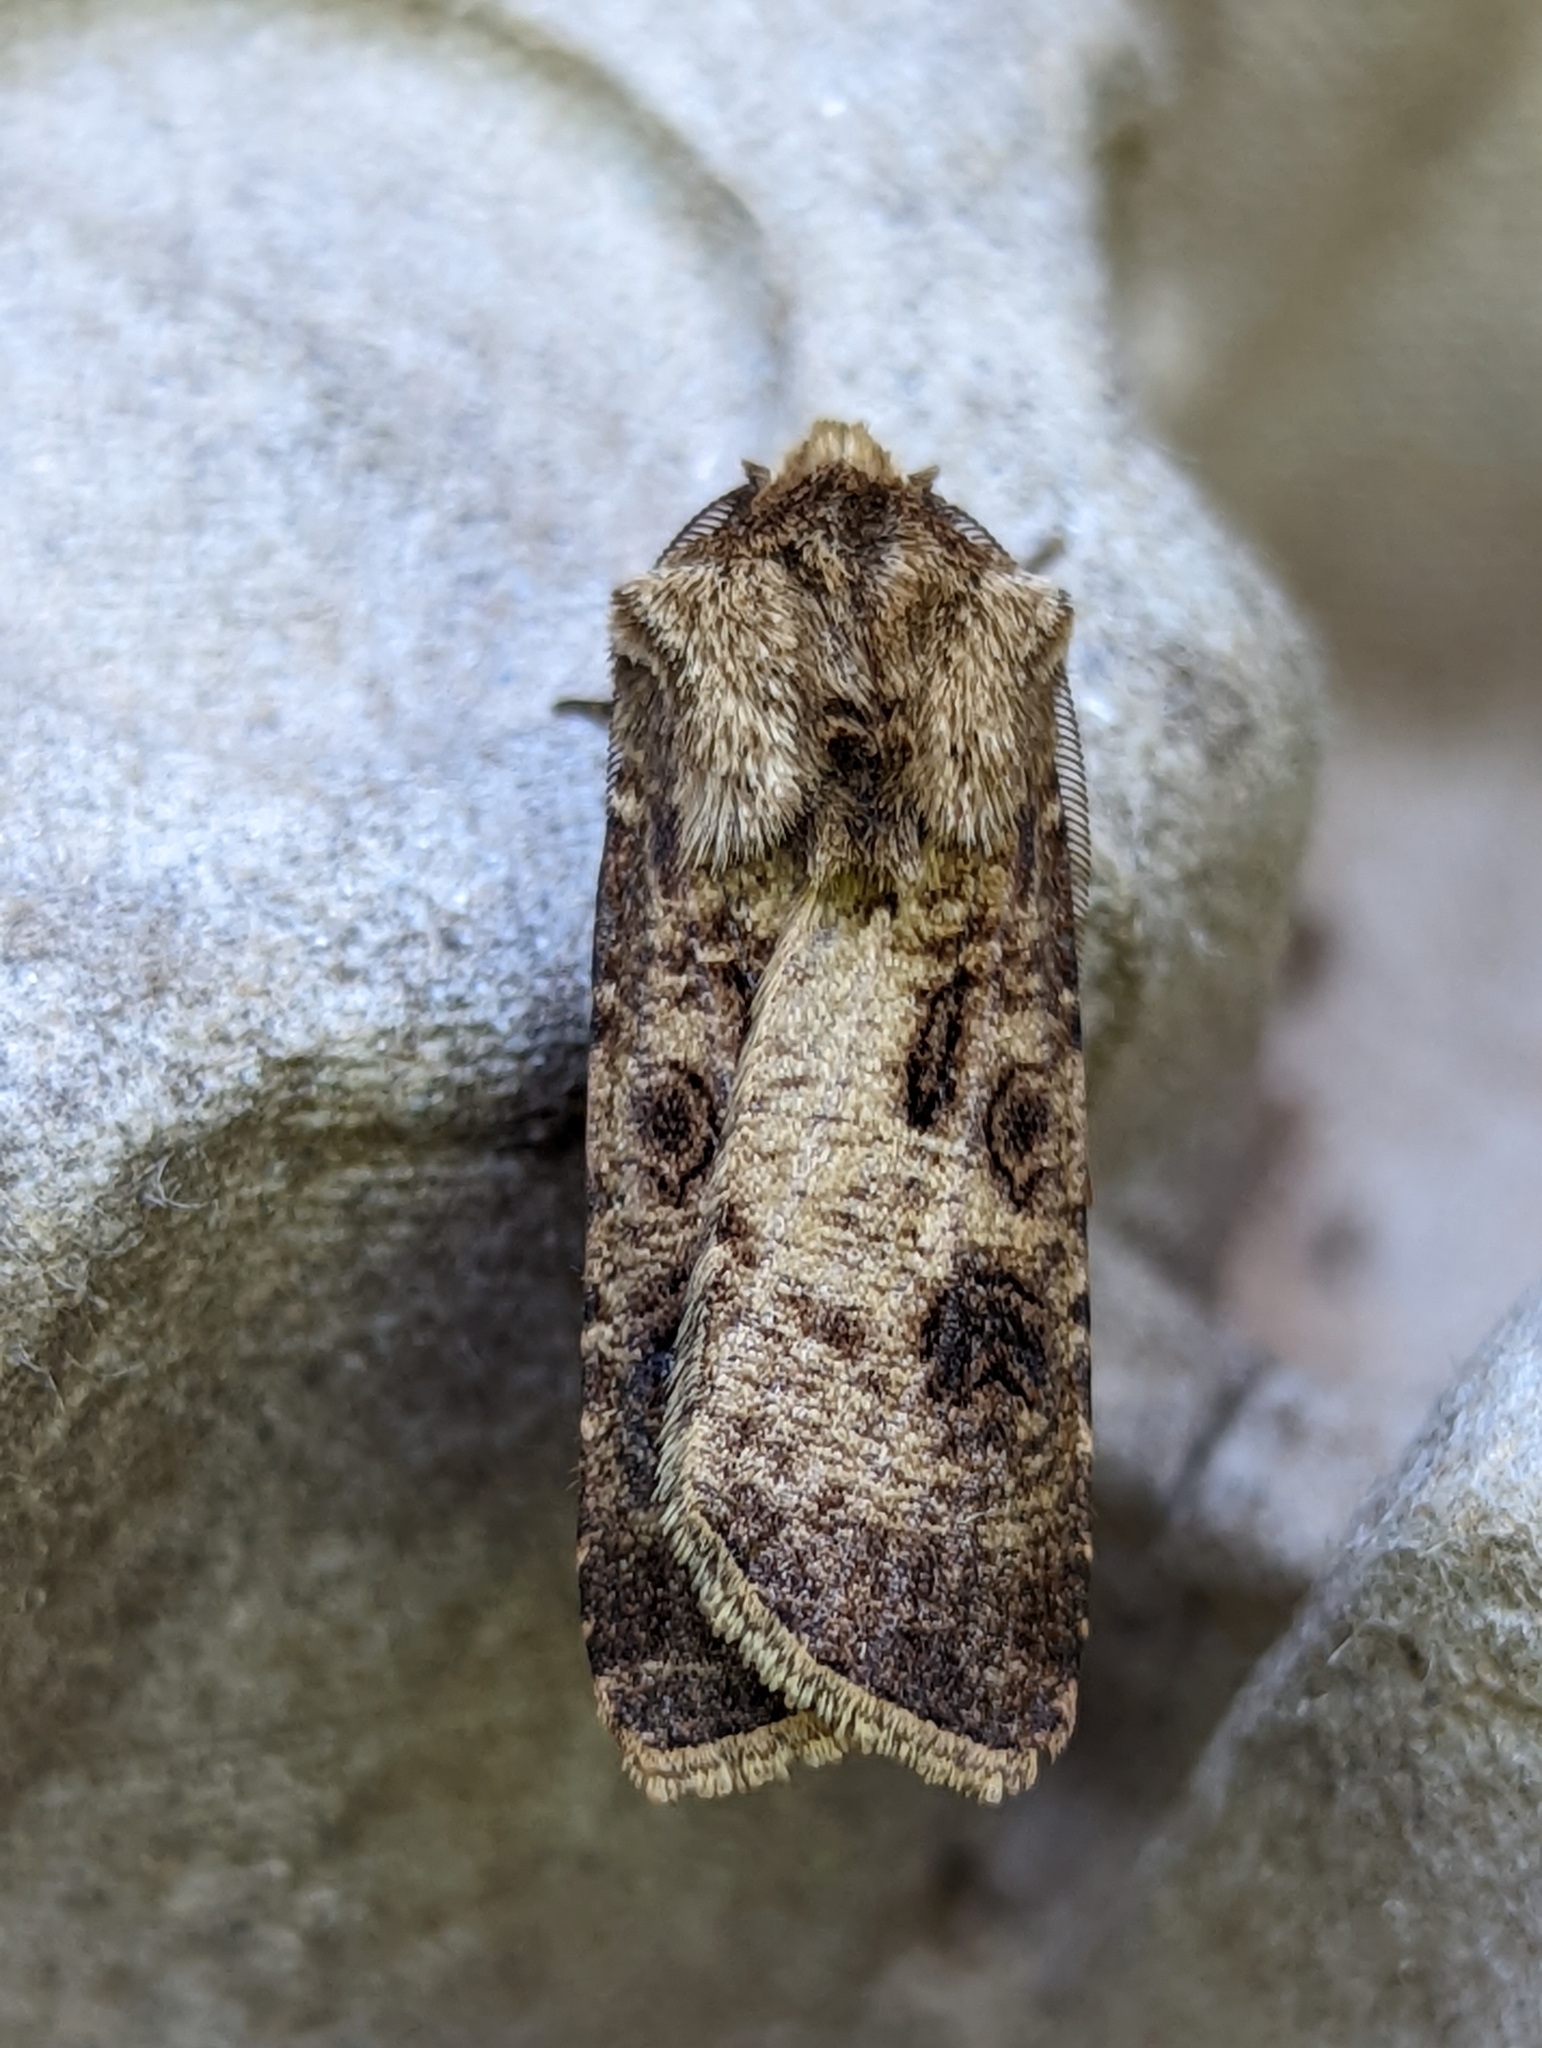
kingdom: Animalia
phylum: Arthropoda
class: Insecta
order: Lepidoptera
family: Noctuidae
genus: Agrotis
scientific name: Agrotis clavis
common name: Heart and club
